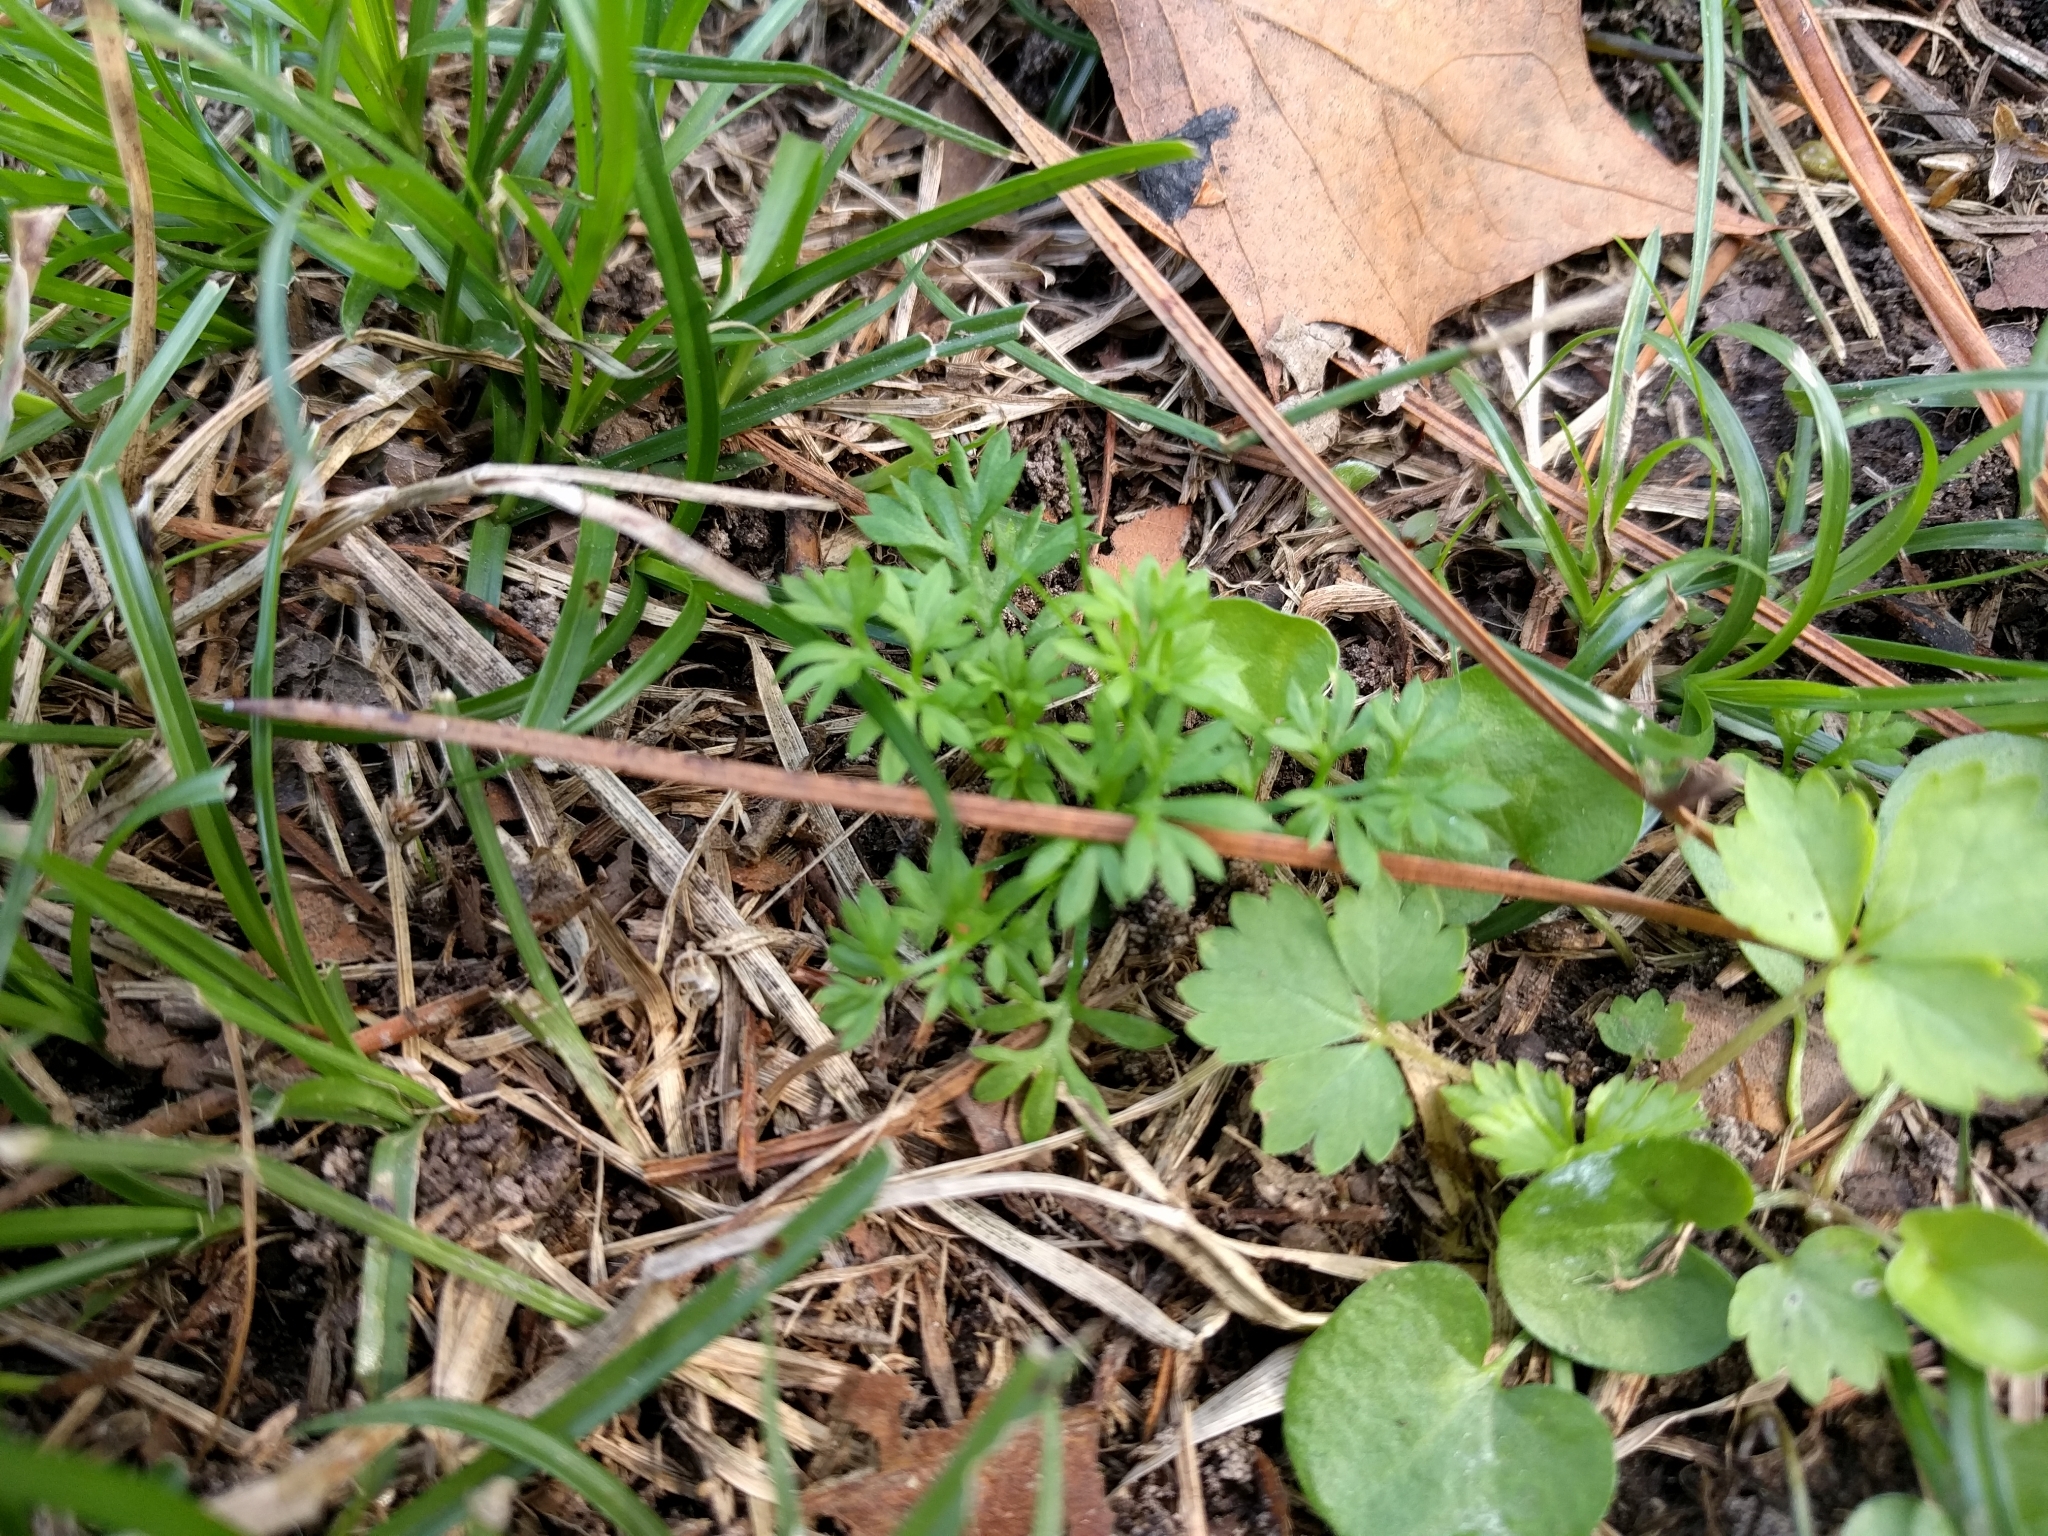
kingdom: Plantae
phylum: Tracheophyta
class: Magnoliopsida
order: Asterales
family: Asteraceae
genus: Soliva
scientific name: Soliva sessilis
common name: Field burrweed
